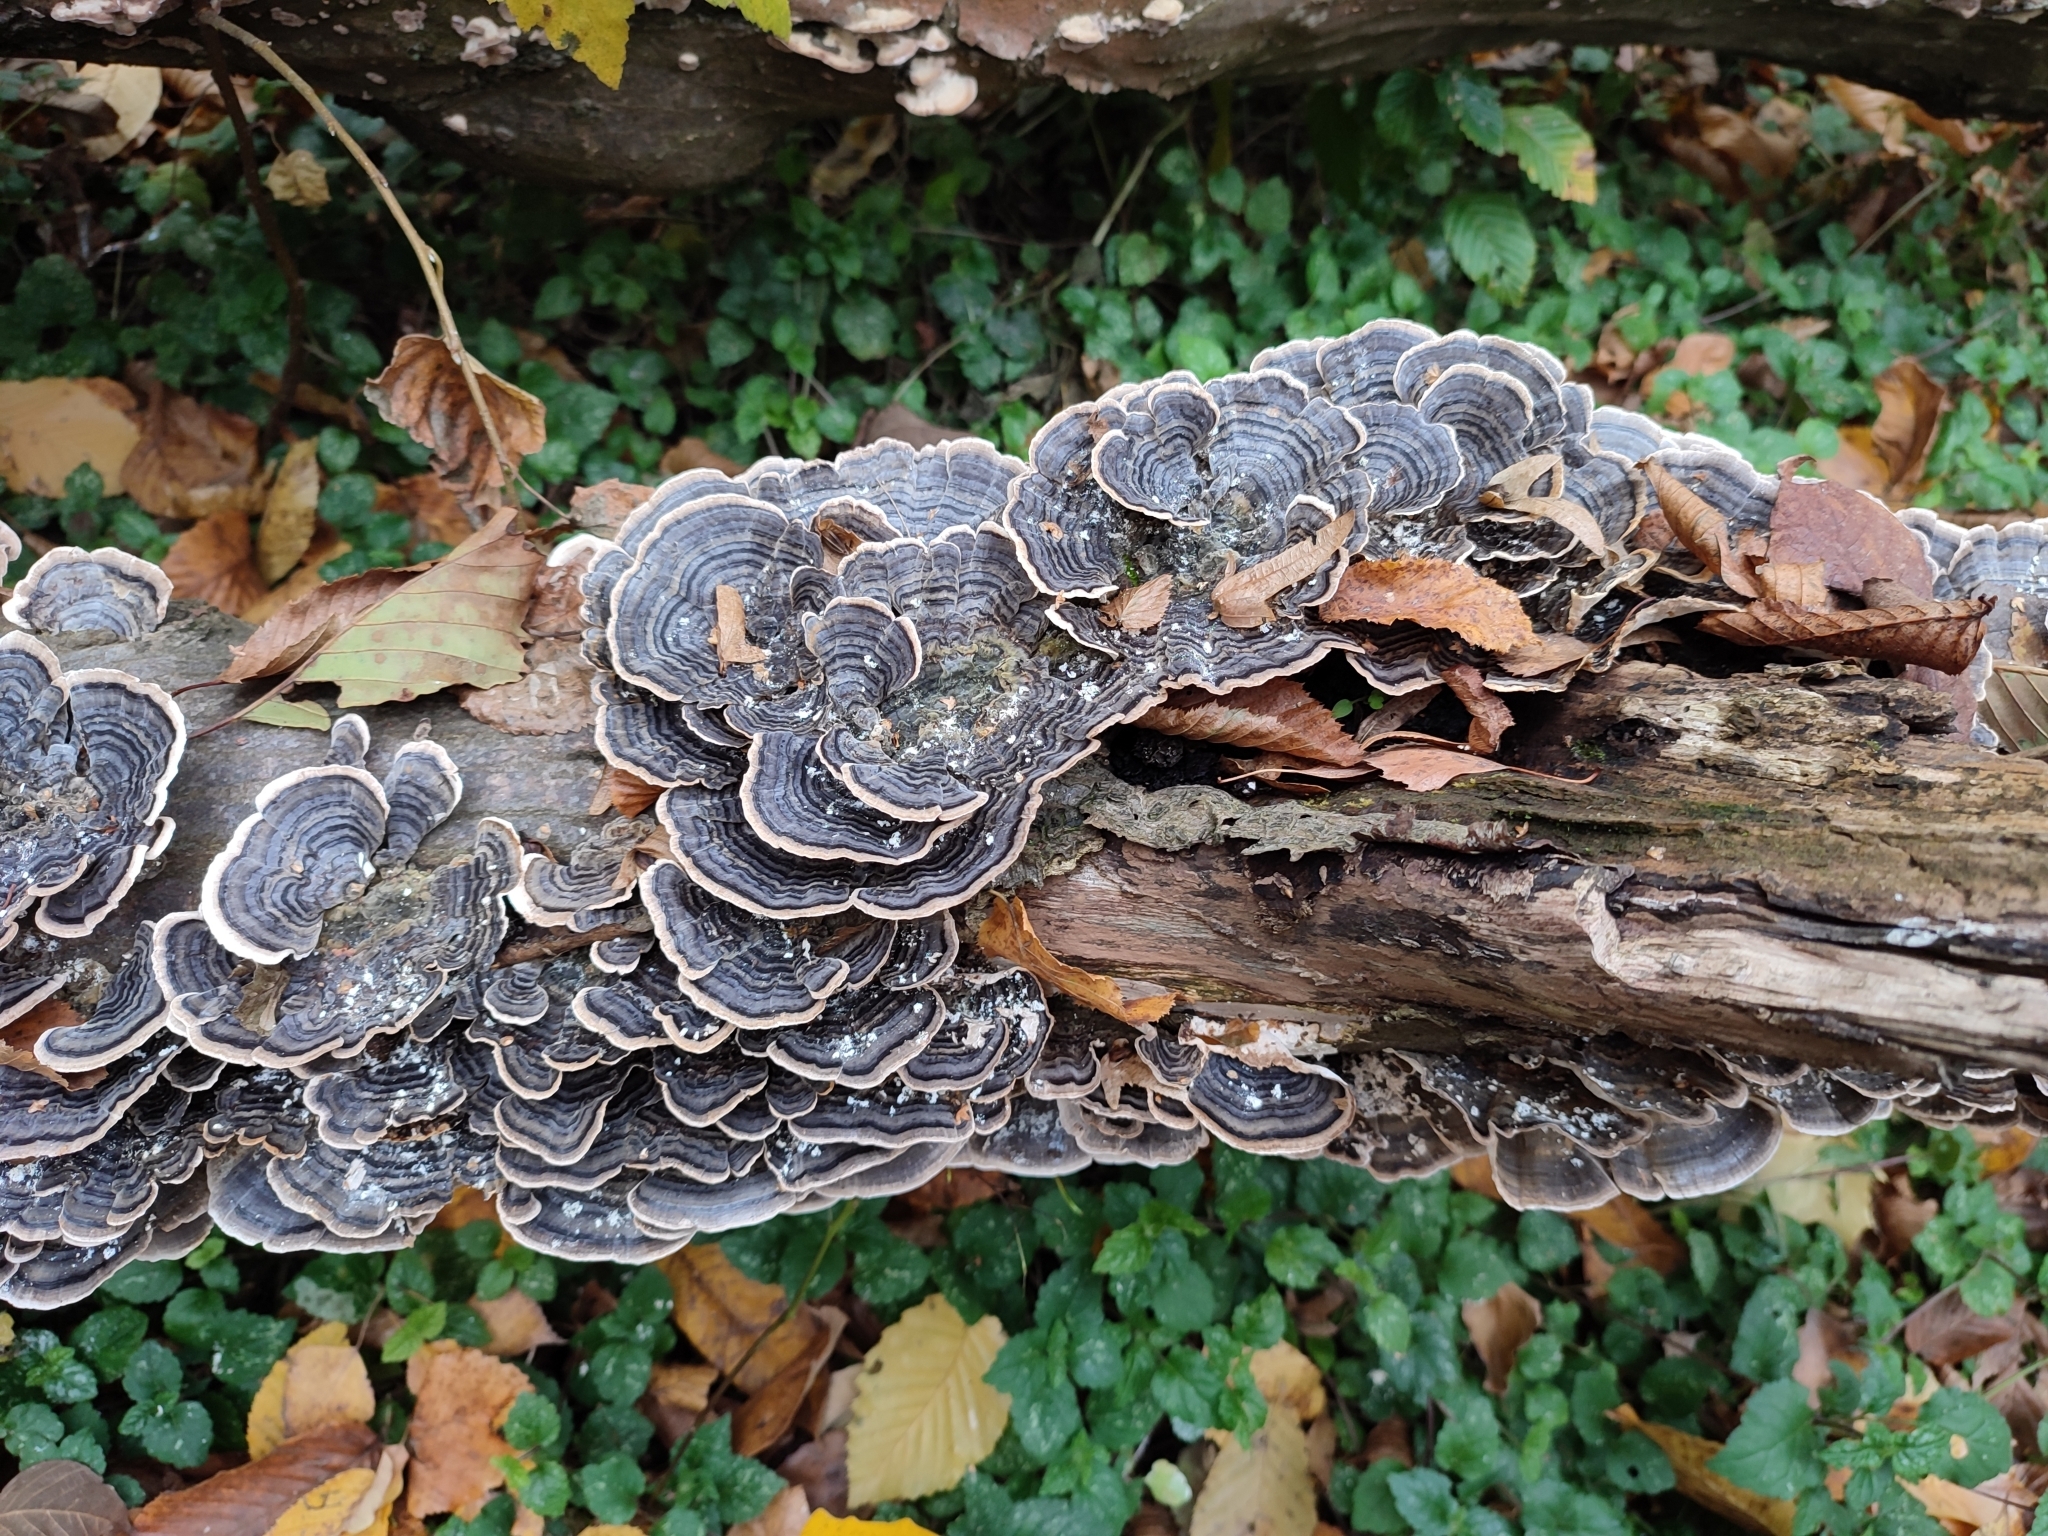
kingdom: Fungi
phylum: Basidiomycota
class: Agaricomycetes
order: Polyporales
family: Polyporaceae
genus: Trametes
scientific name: Trametes versicolor
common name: Turkeytail
